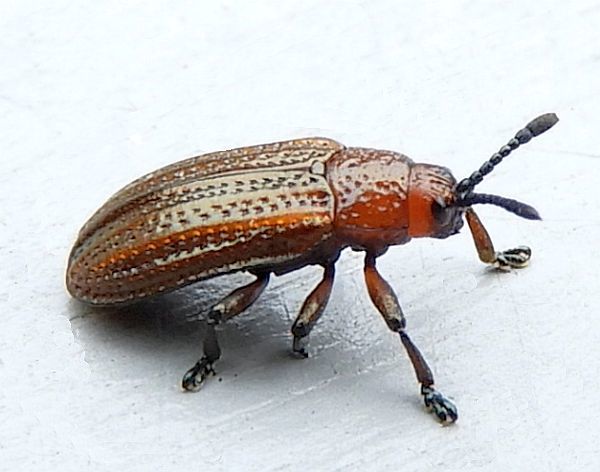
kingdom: Animalia
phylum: Arthropoda
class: Insecta
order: Coleoptera
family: Chrysomelidae
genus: Microrhopala
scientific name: Microrhopala vittata
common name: Goldenrod leaf miner beetle
